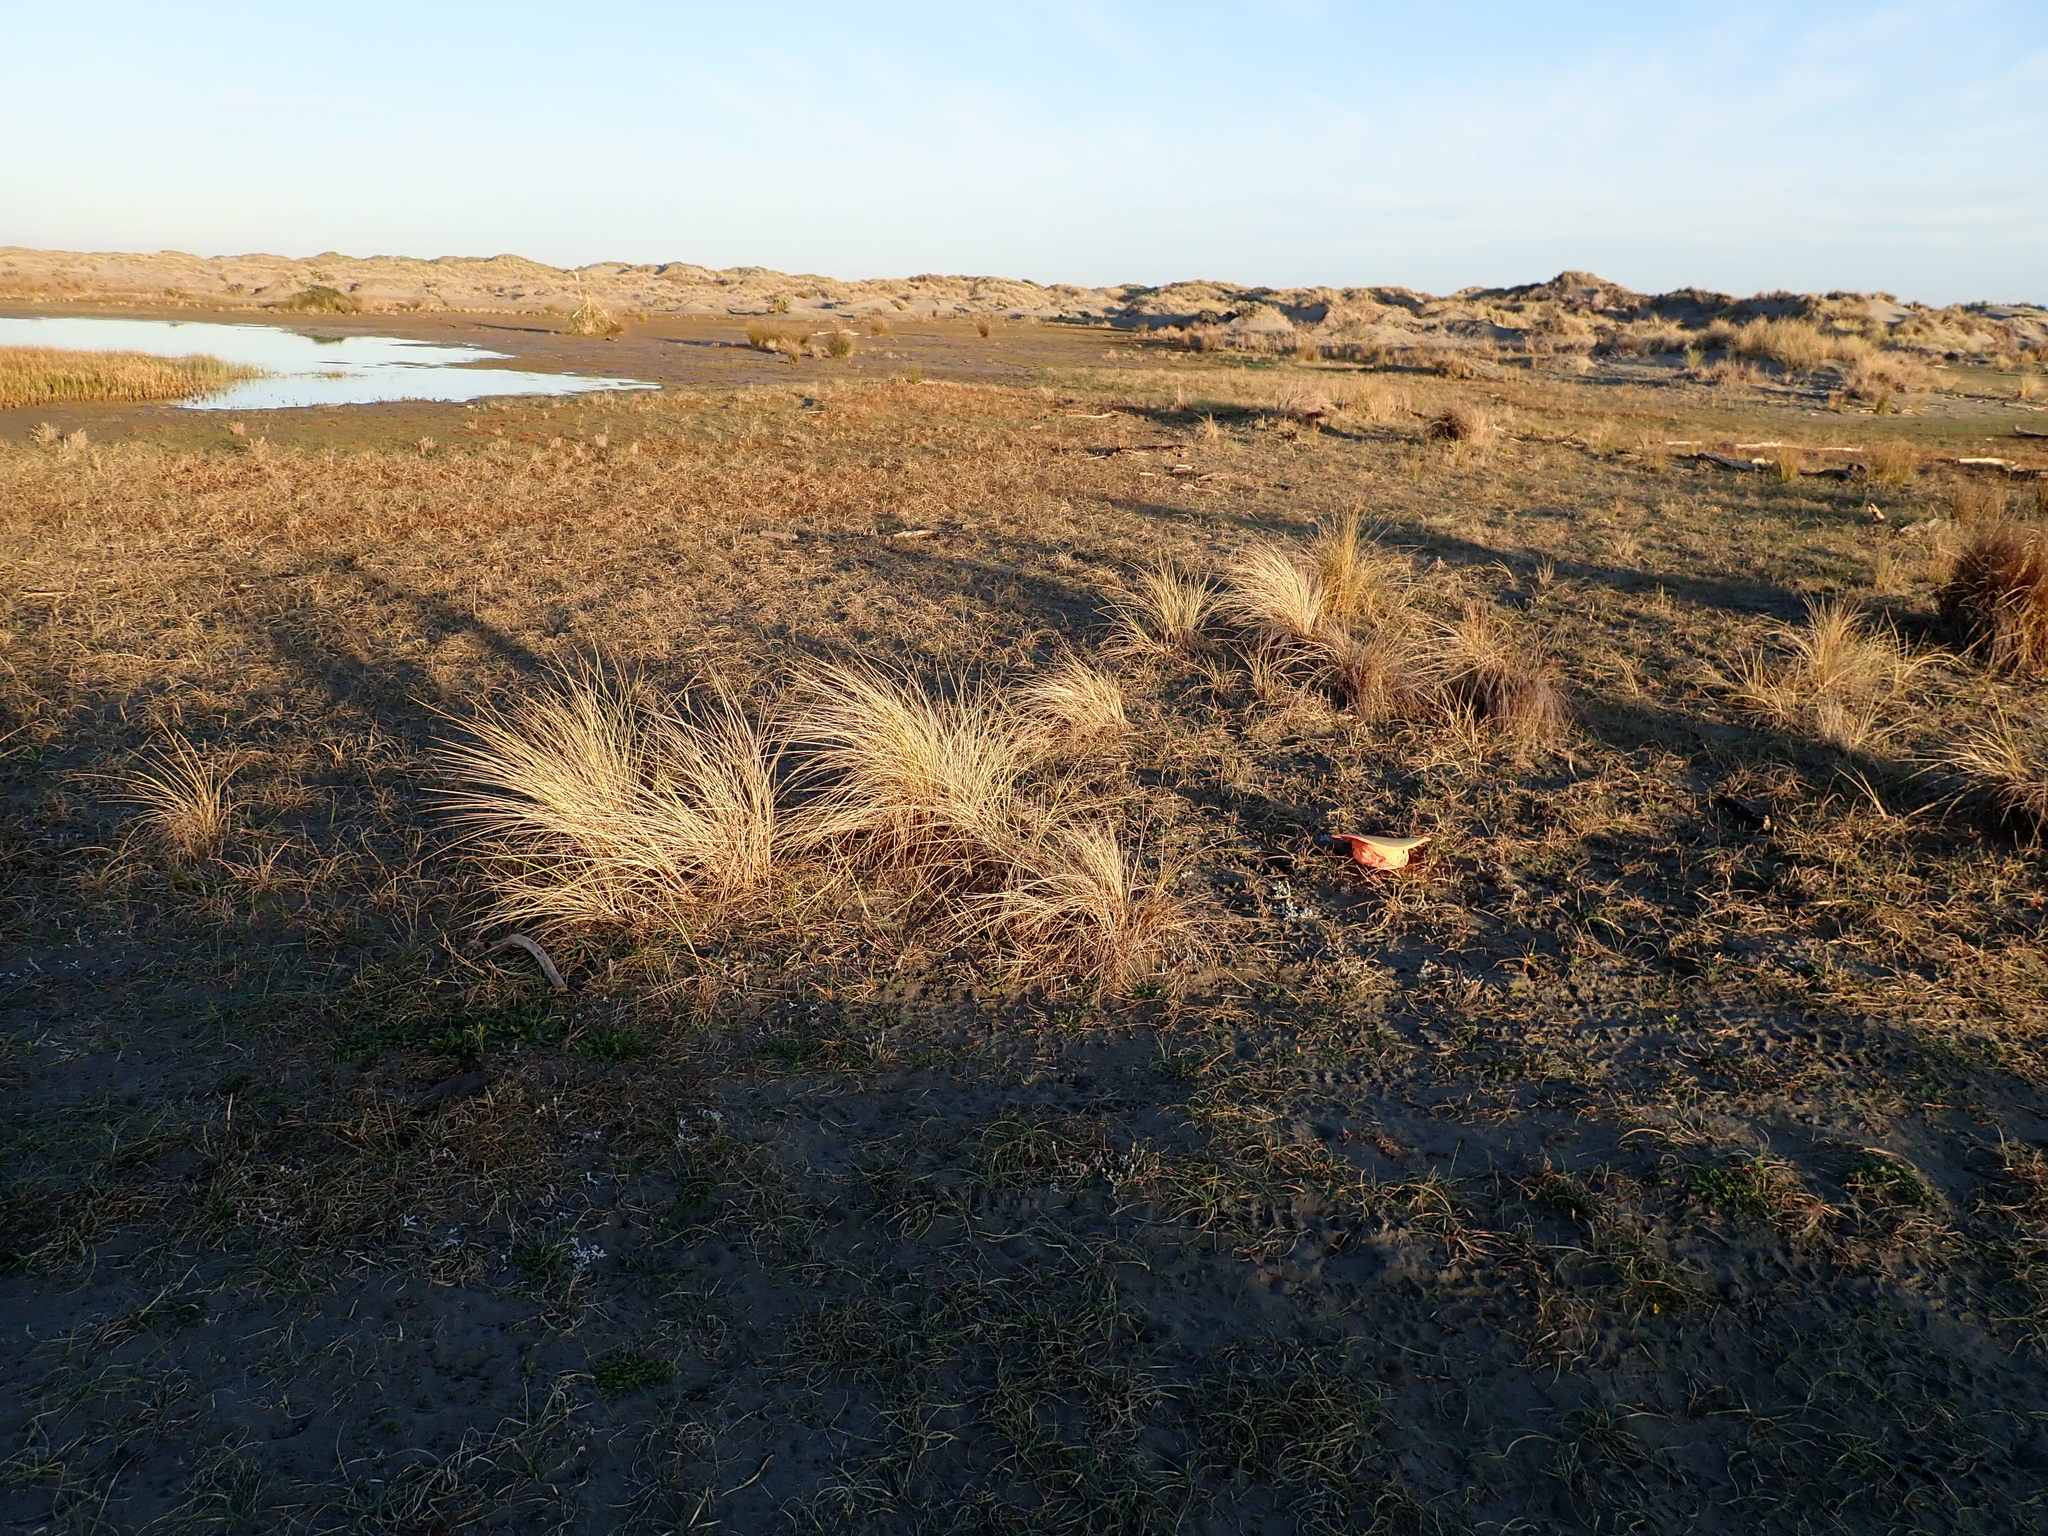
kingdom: Plantae
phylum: Tracheophyta
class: Liliopsida
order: Poales
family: Cyperaceae
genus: Carex
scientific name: Carex pumila
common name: Dwarf sedge
